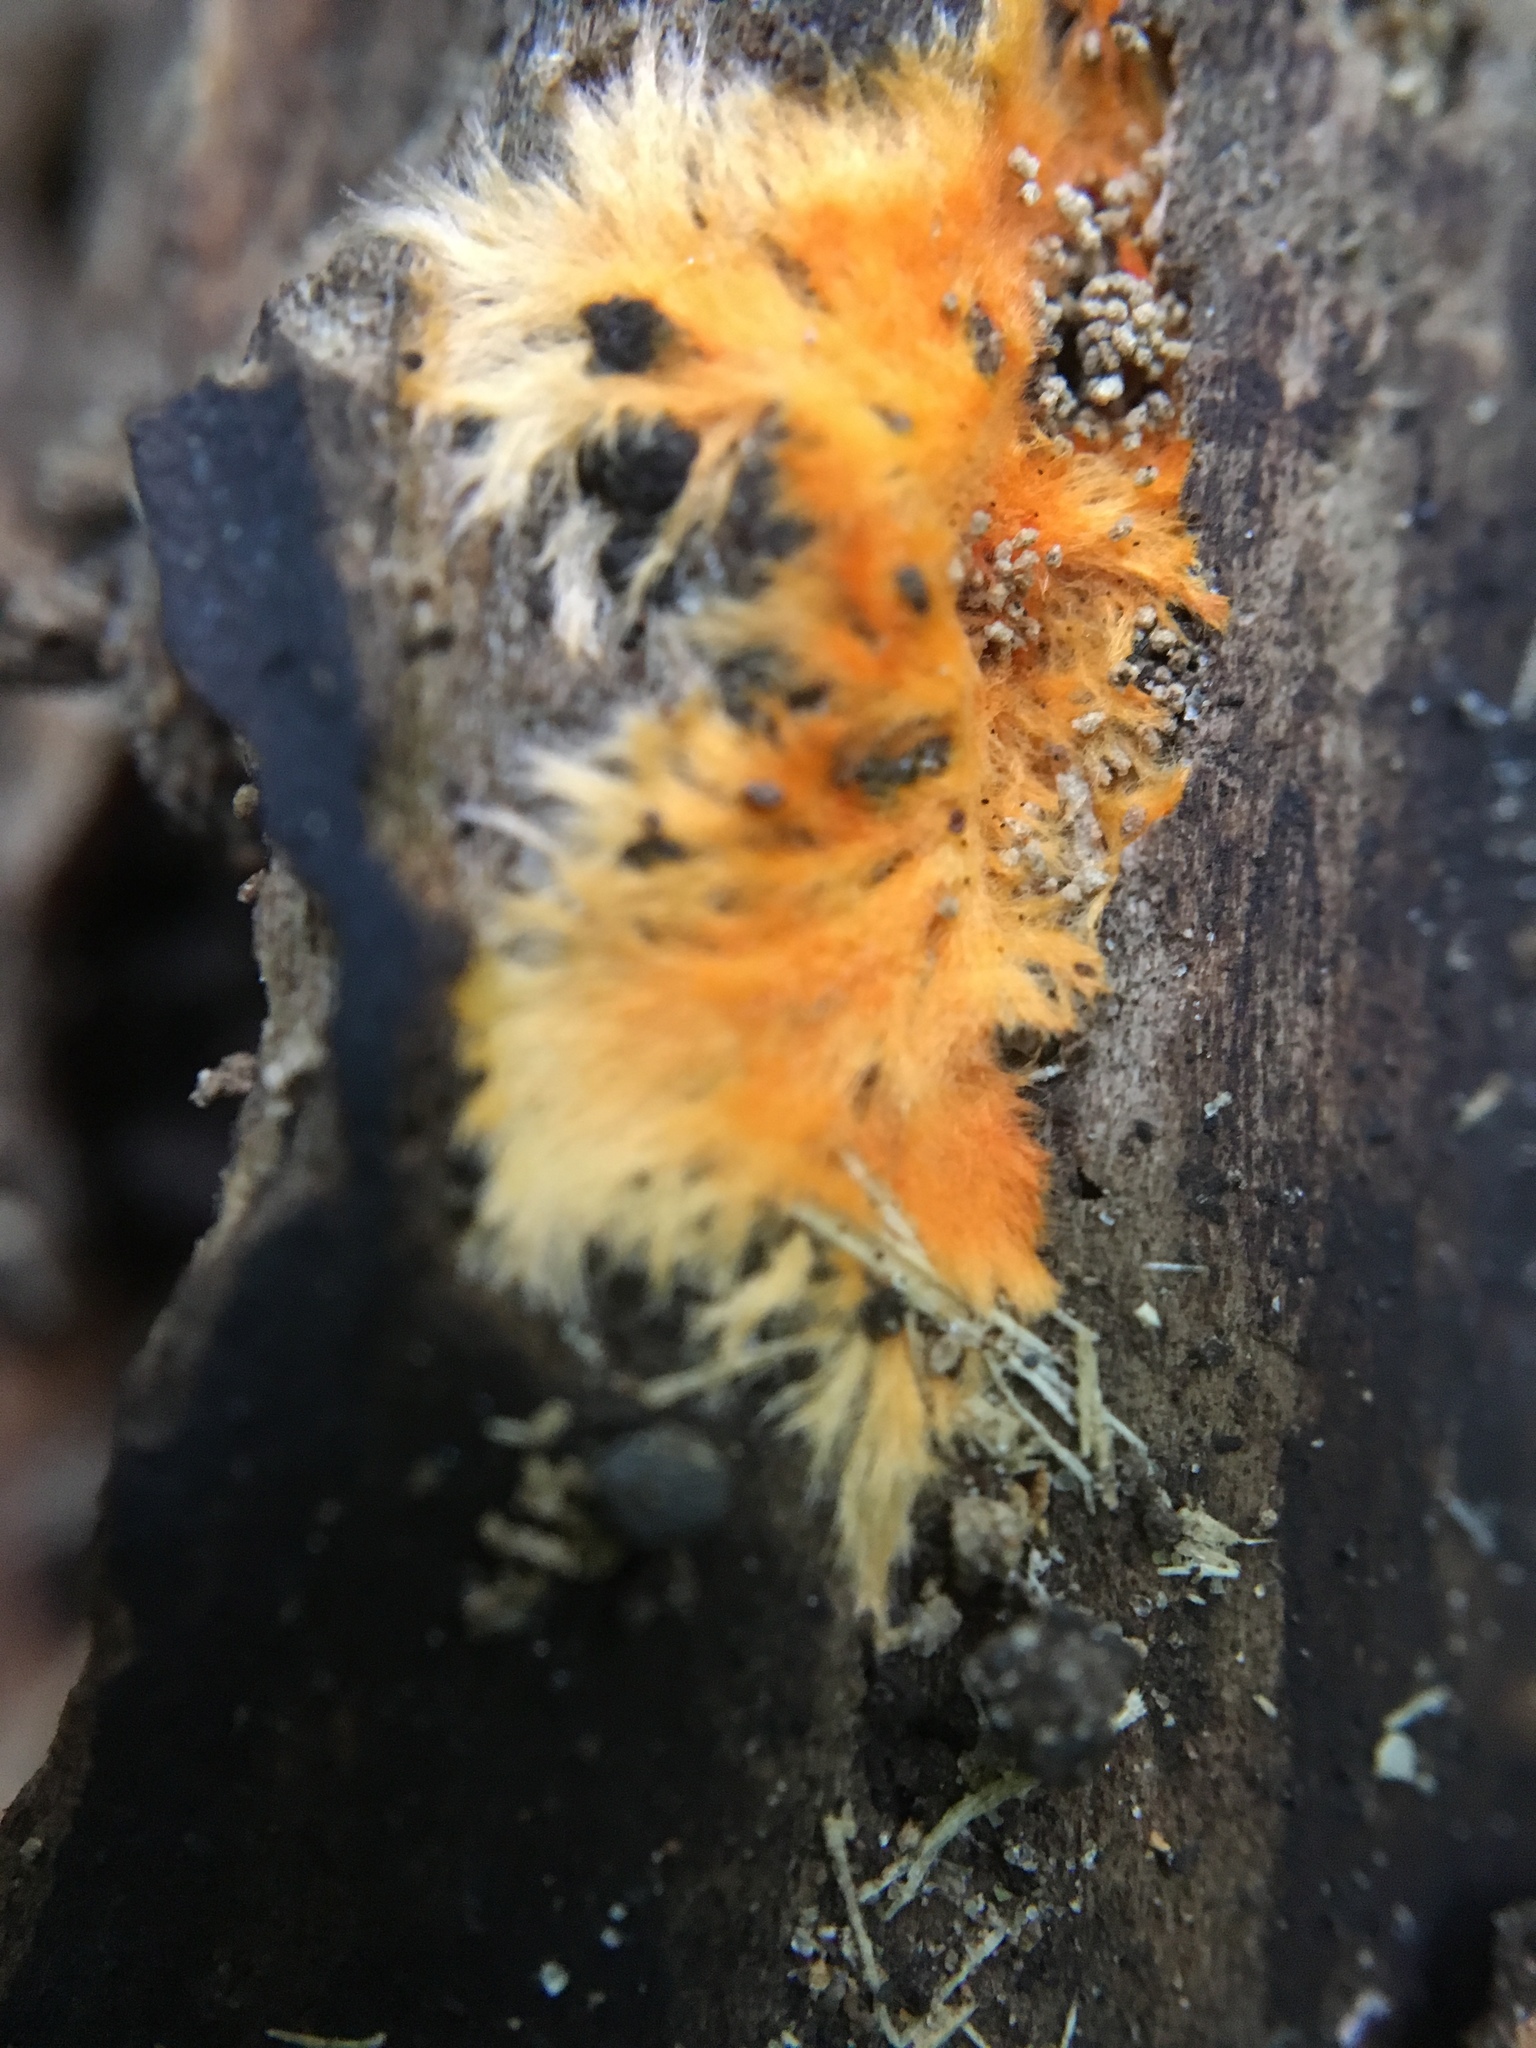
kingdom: Fungi
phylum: Basidiomycota
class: Agaricomycetes
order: Polyporales
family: Meruliaceae
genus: Hydnophlebia
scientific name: Hydnophlebia chrysorhiza
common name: Spreading yellow tooth
